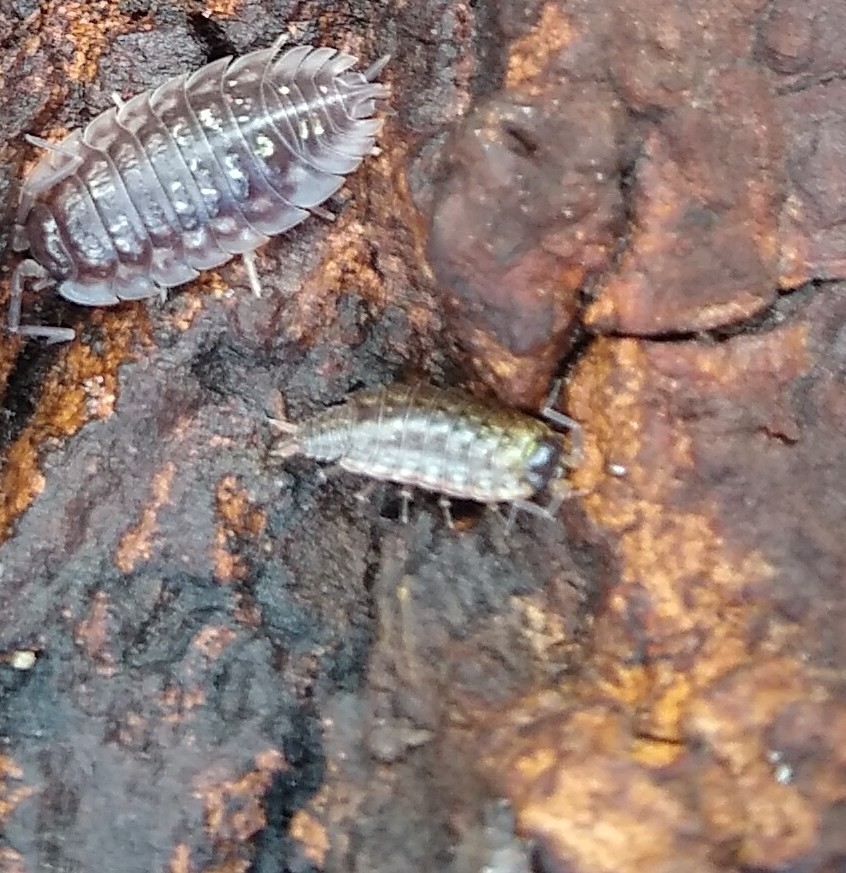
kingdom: Animalia
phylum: Arthropoda
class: Malacostraca
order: Isopoda
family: Philosciidae
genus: Philoscia
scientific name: Philoscia muscorum
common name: Common striped woodlouse
